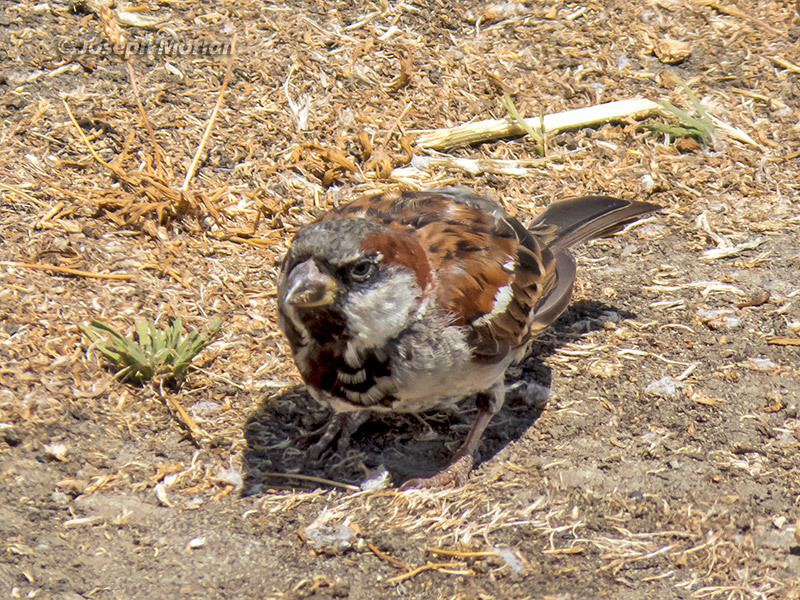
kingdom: Animalia
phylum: Chordata
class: Aves
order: Passeriformes
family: Passeridae
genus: Passer
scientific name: Passer domesticus
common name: House sparrow
